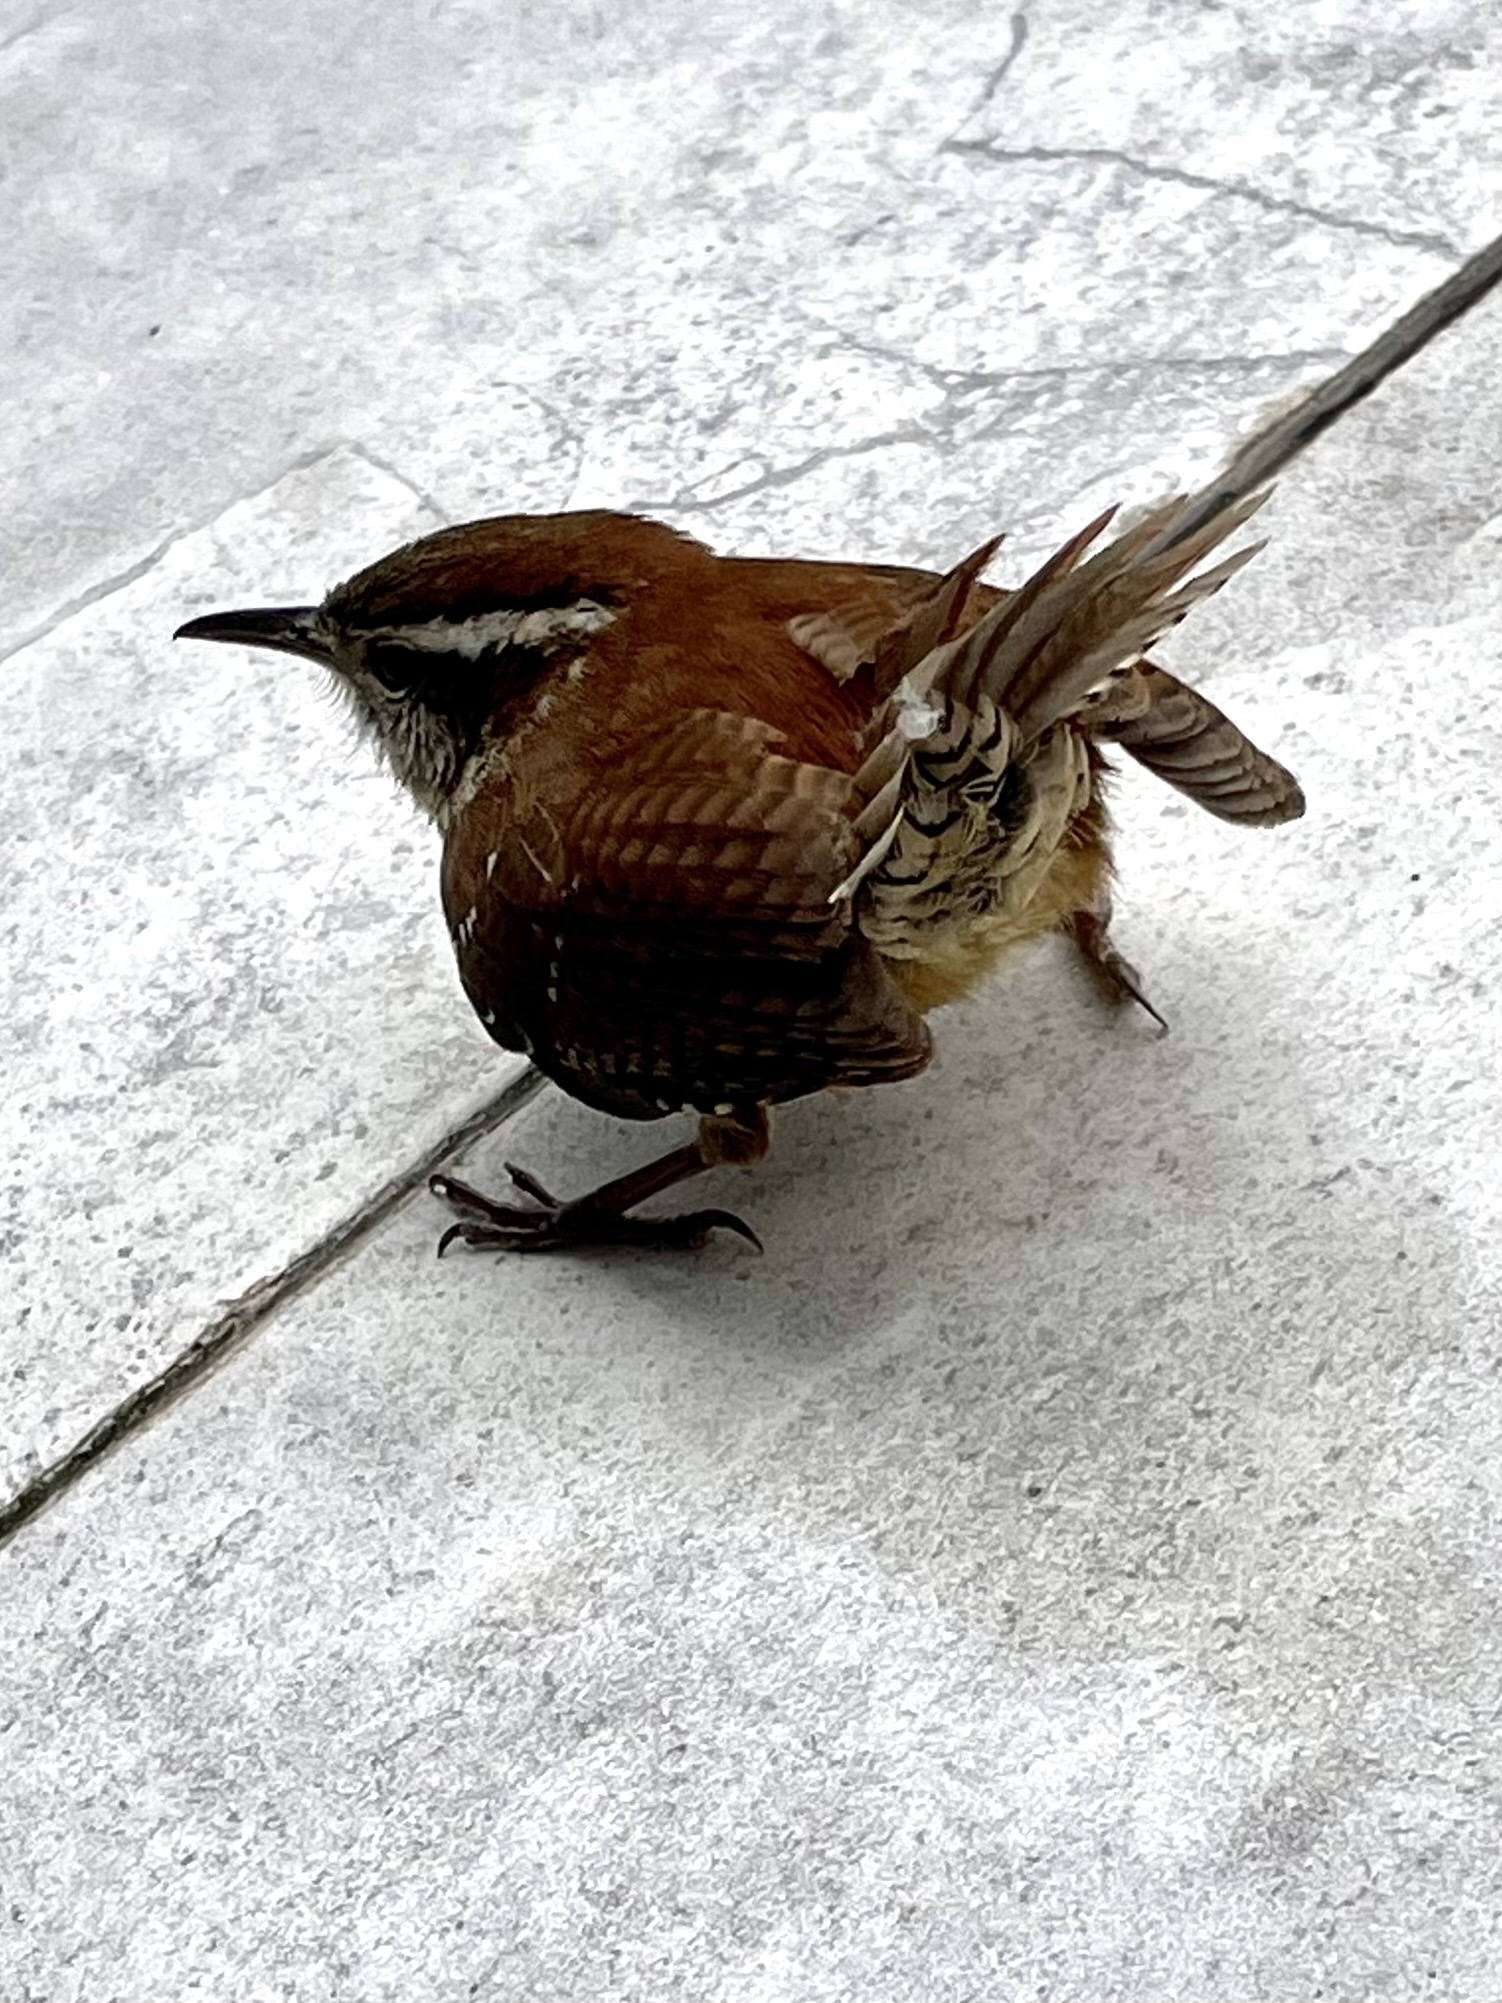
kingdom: Animalia
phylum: Chordata
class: Aves
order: Passeriformes
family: Troglodytidae
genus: Thryothorus
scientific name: Thryothorus ludovicianus
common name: Carolina wren
